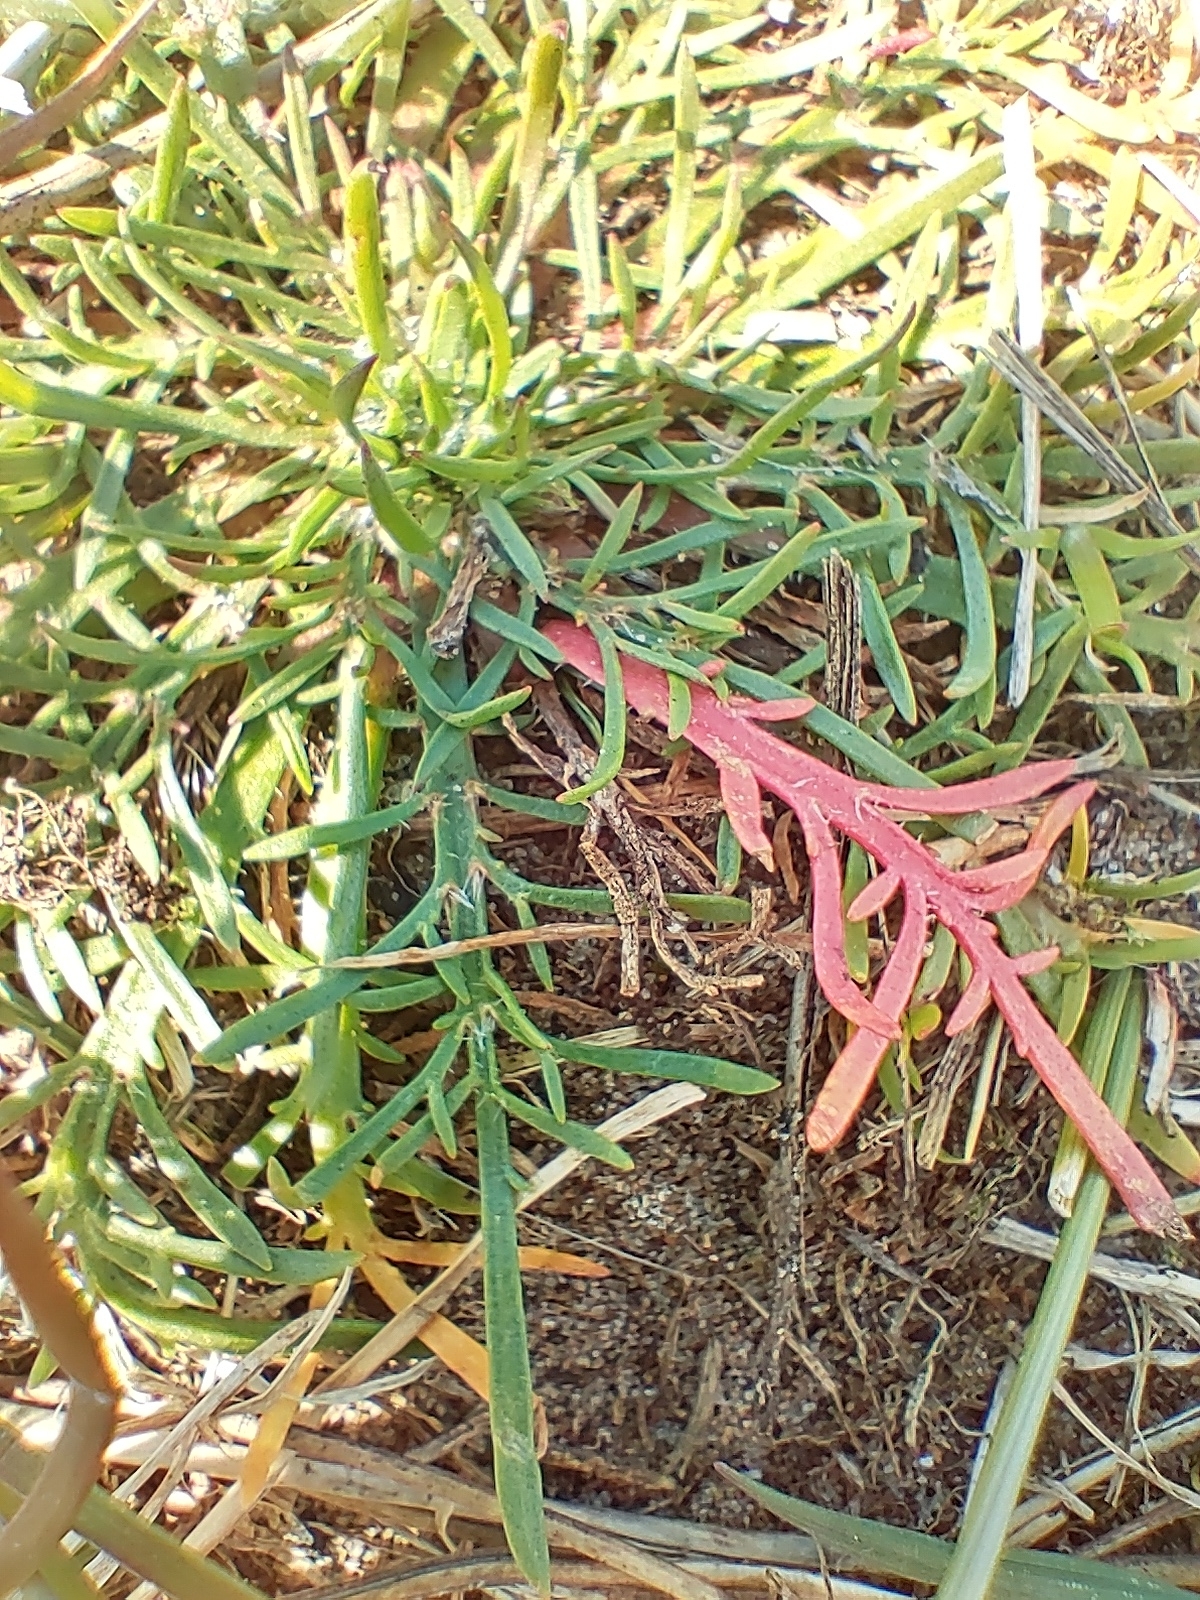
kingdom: Plantae
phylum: Tracheophyta
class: Magnoliopsida
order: Lamiales
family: Plantaginaceae
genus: Plantago
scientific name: Plantago coronopus
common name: Buck's-horn plantain
